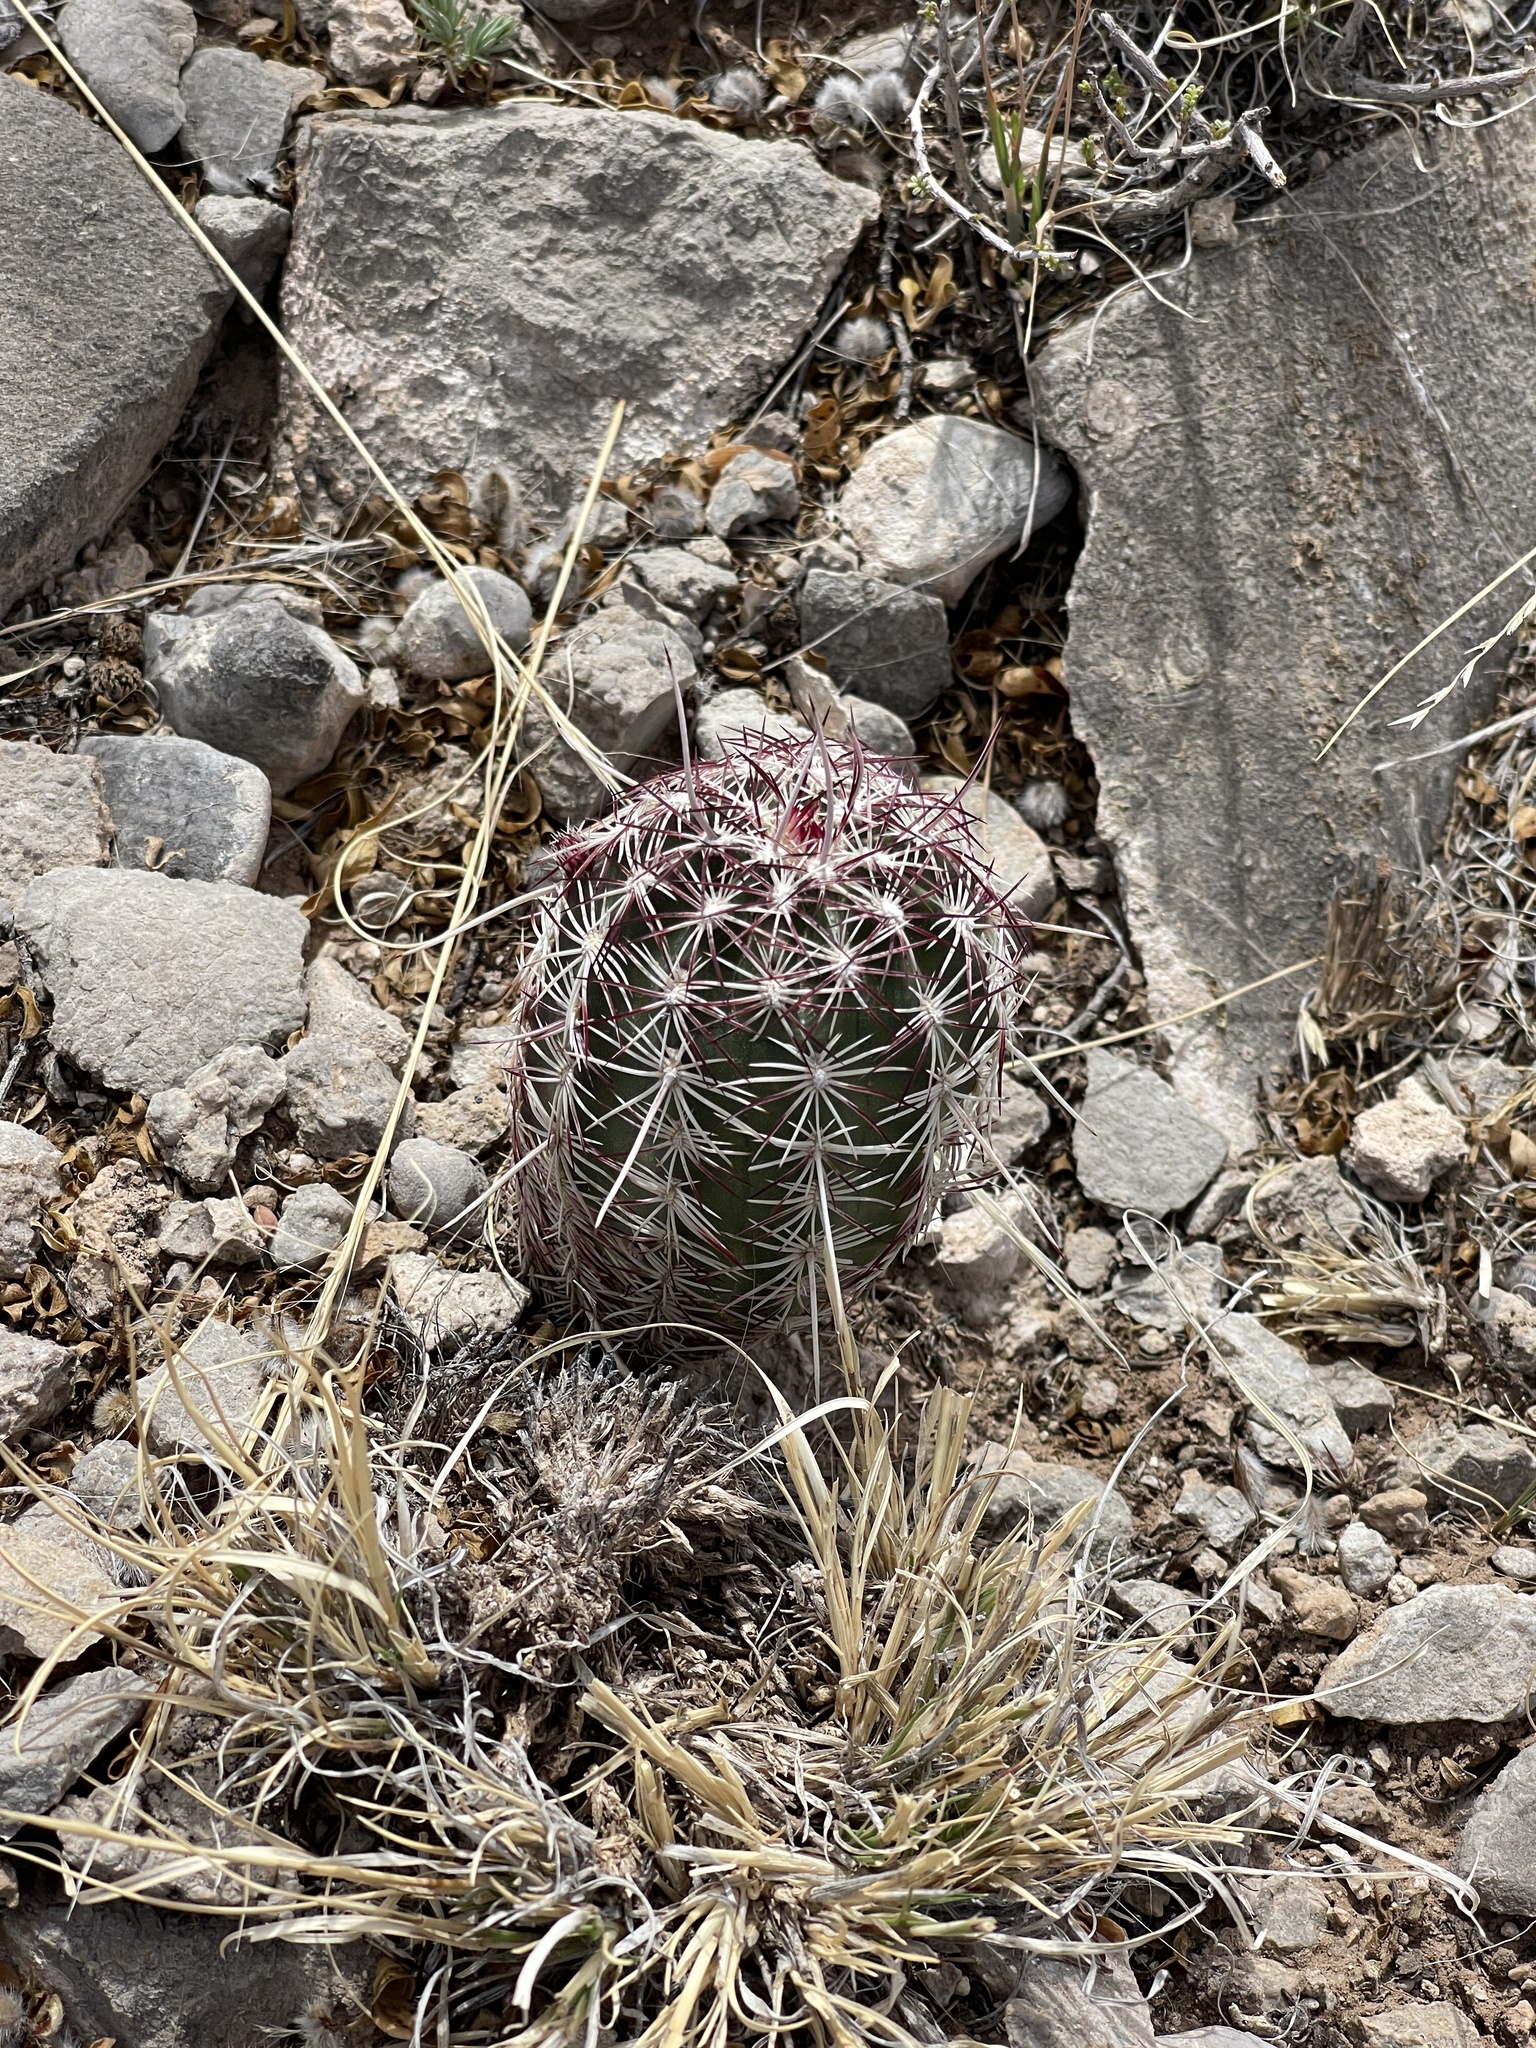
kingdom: Plantae
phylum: Tracheophyta
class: Magnoliopsida
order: Caryophyllales
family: Cactaceae
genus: Echinocereus
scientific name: Echinocereus viridiflorus
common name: Nylon hedgehog cactus
